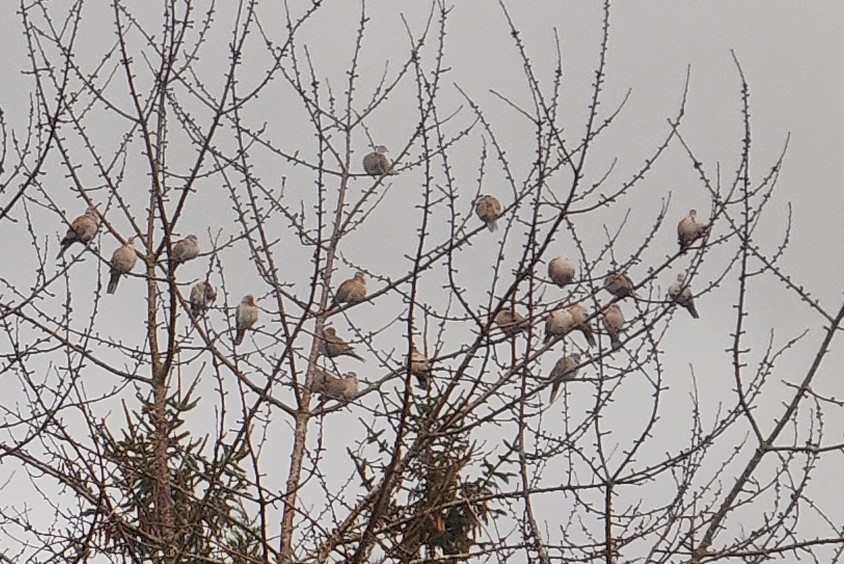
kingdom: Animalia
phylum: Chordata
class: Aves
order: Columbiformes
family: Columbidae
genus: Streptopelia
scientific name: Streptopelia decaocto
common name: Eurasian collared dove
